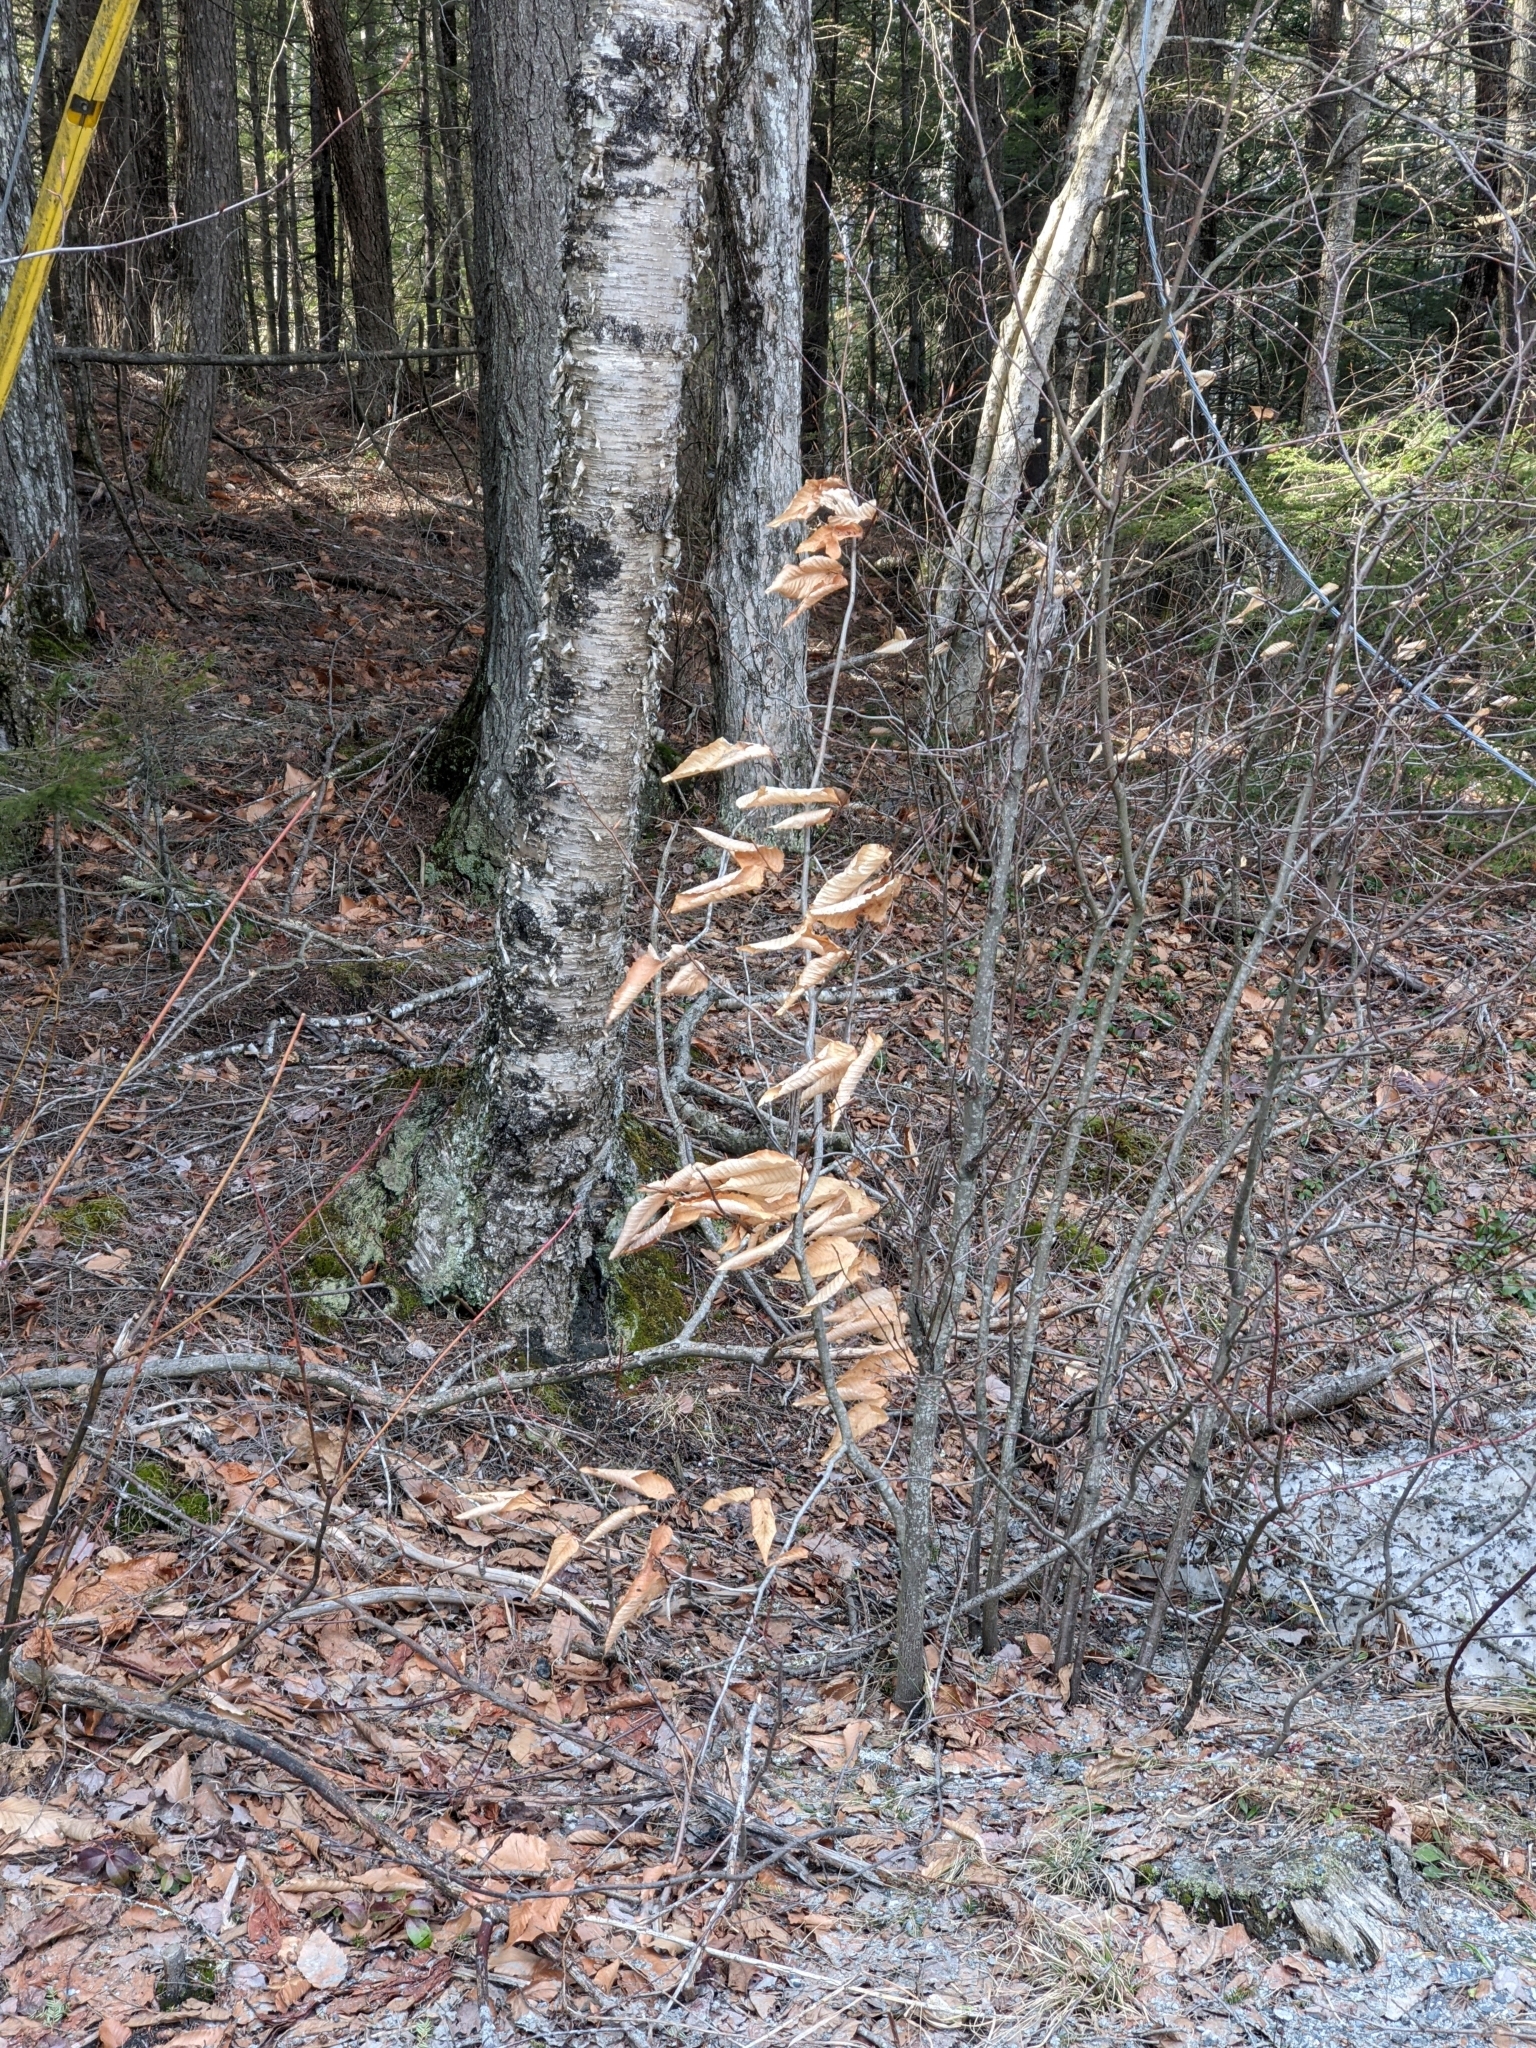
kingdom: Plantae
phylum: Tracheophyta
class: Magnoliopsida
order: Fagales
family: Fagaceae
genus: Fagus
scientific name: Fagus grandifolia
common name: American beech
